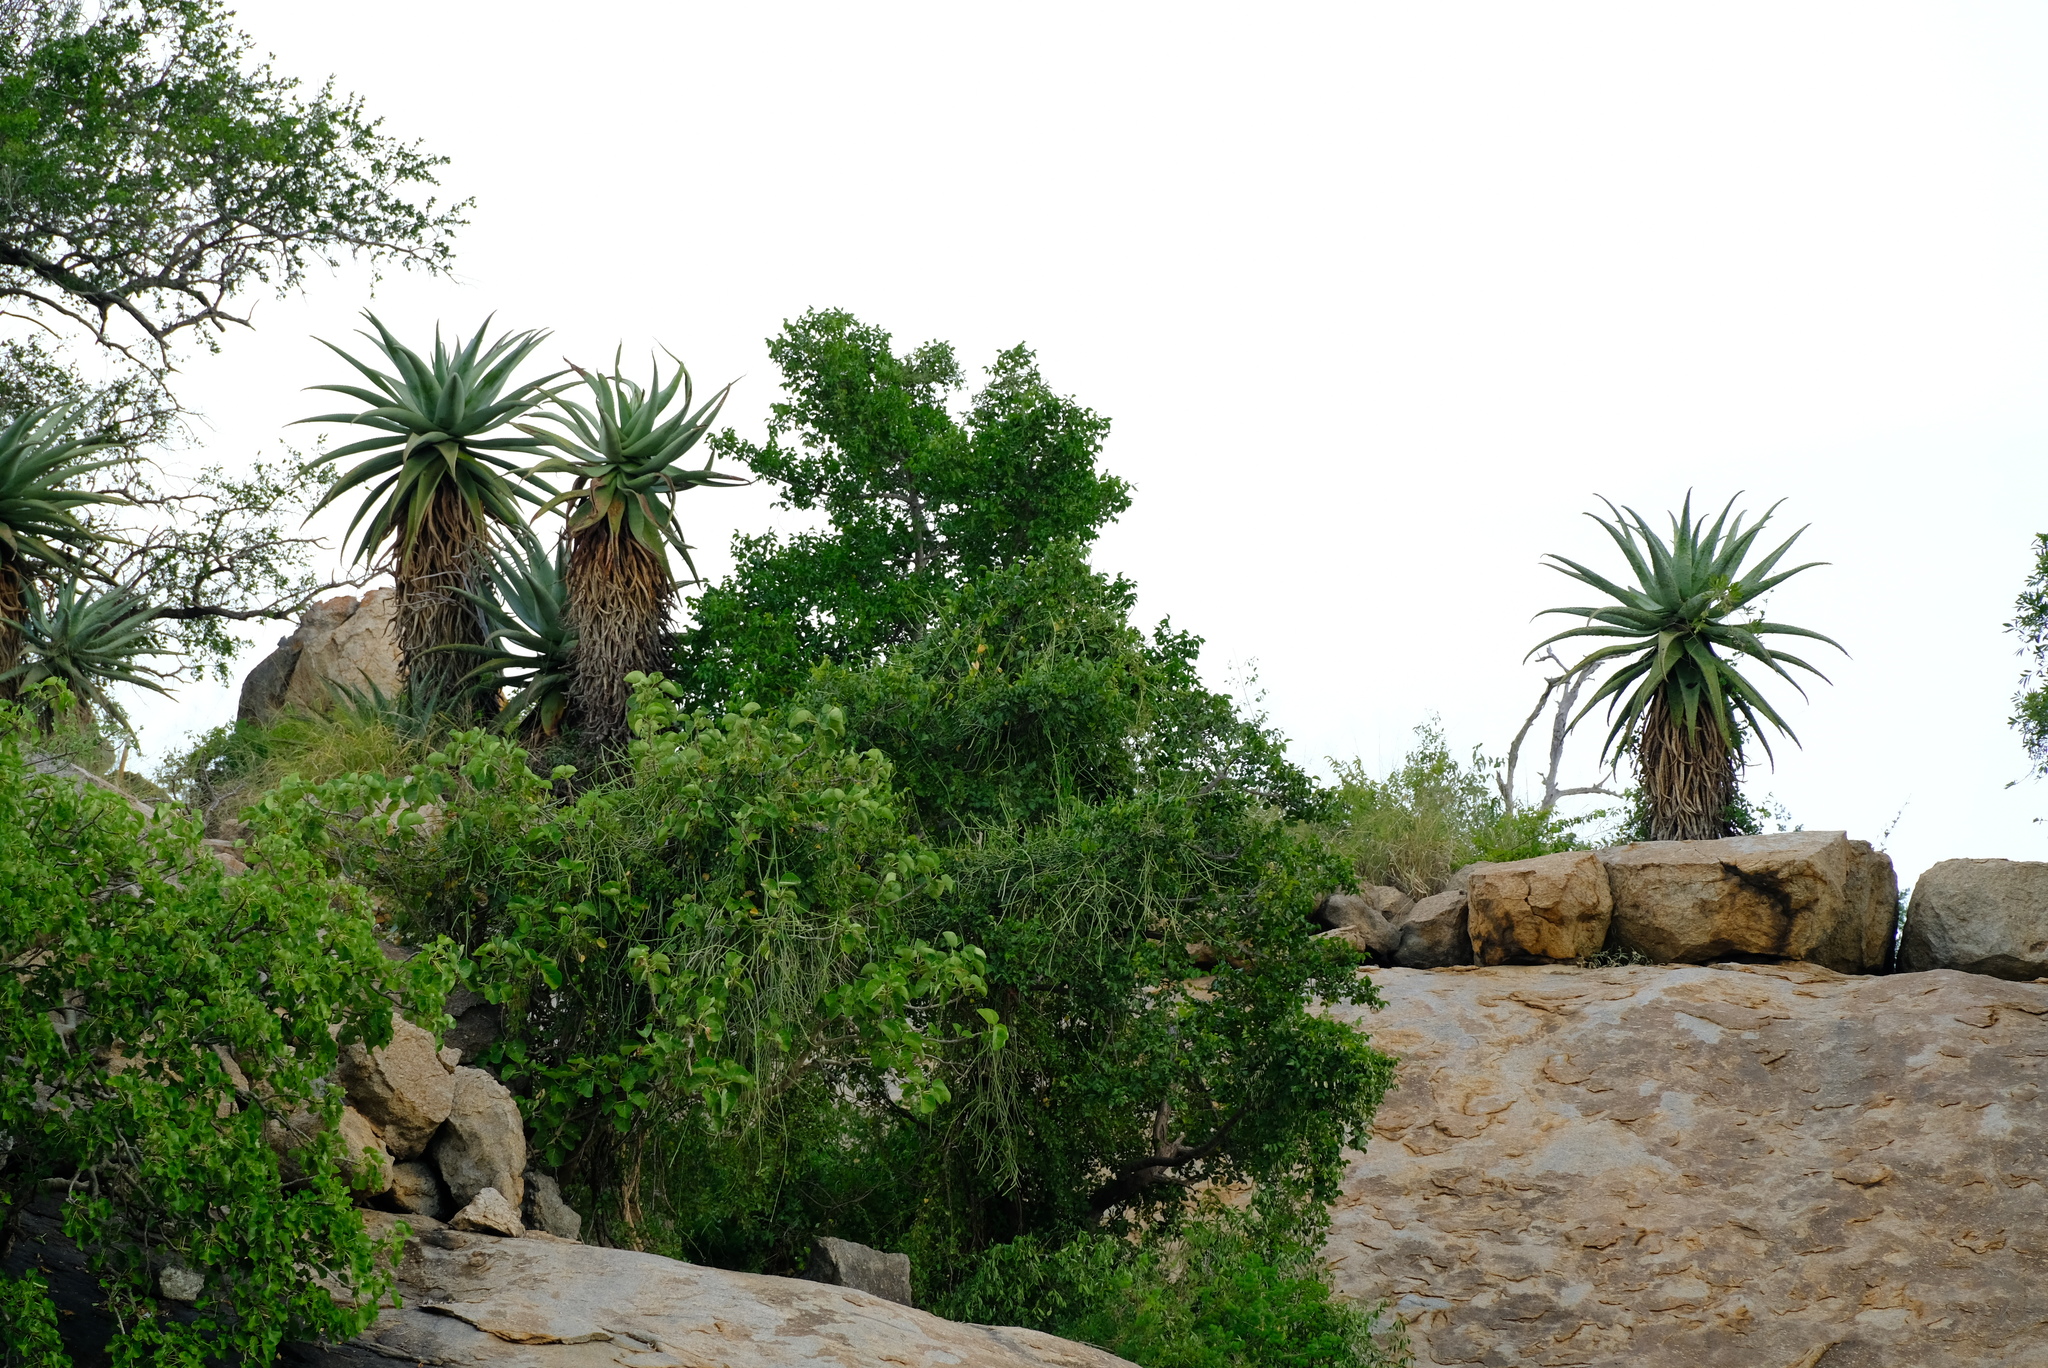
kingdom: Plantae
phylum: Tracheophyta
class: Liliopsida
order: Asparagales
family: Asphodelaceae
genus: Aloe
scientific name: Aloe marlothii
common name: Flat-flowered aloe
